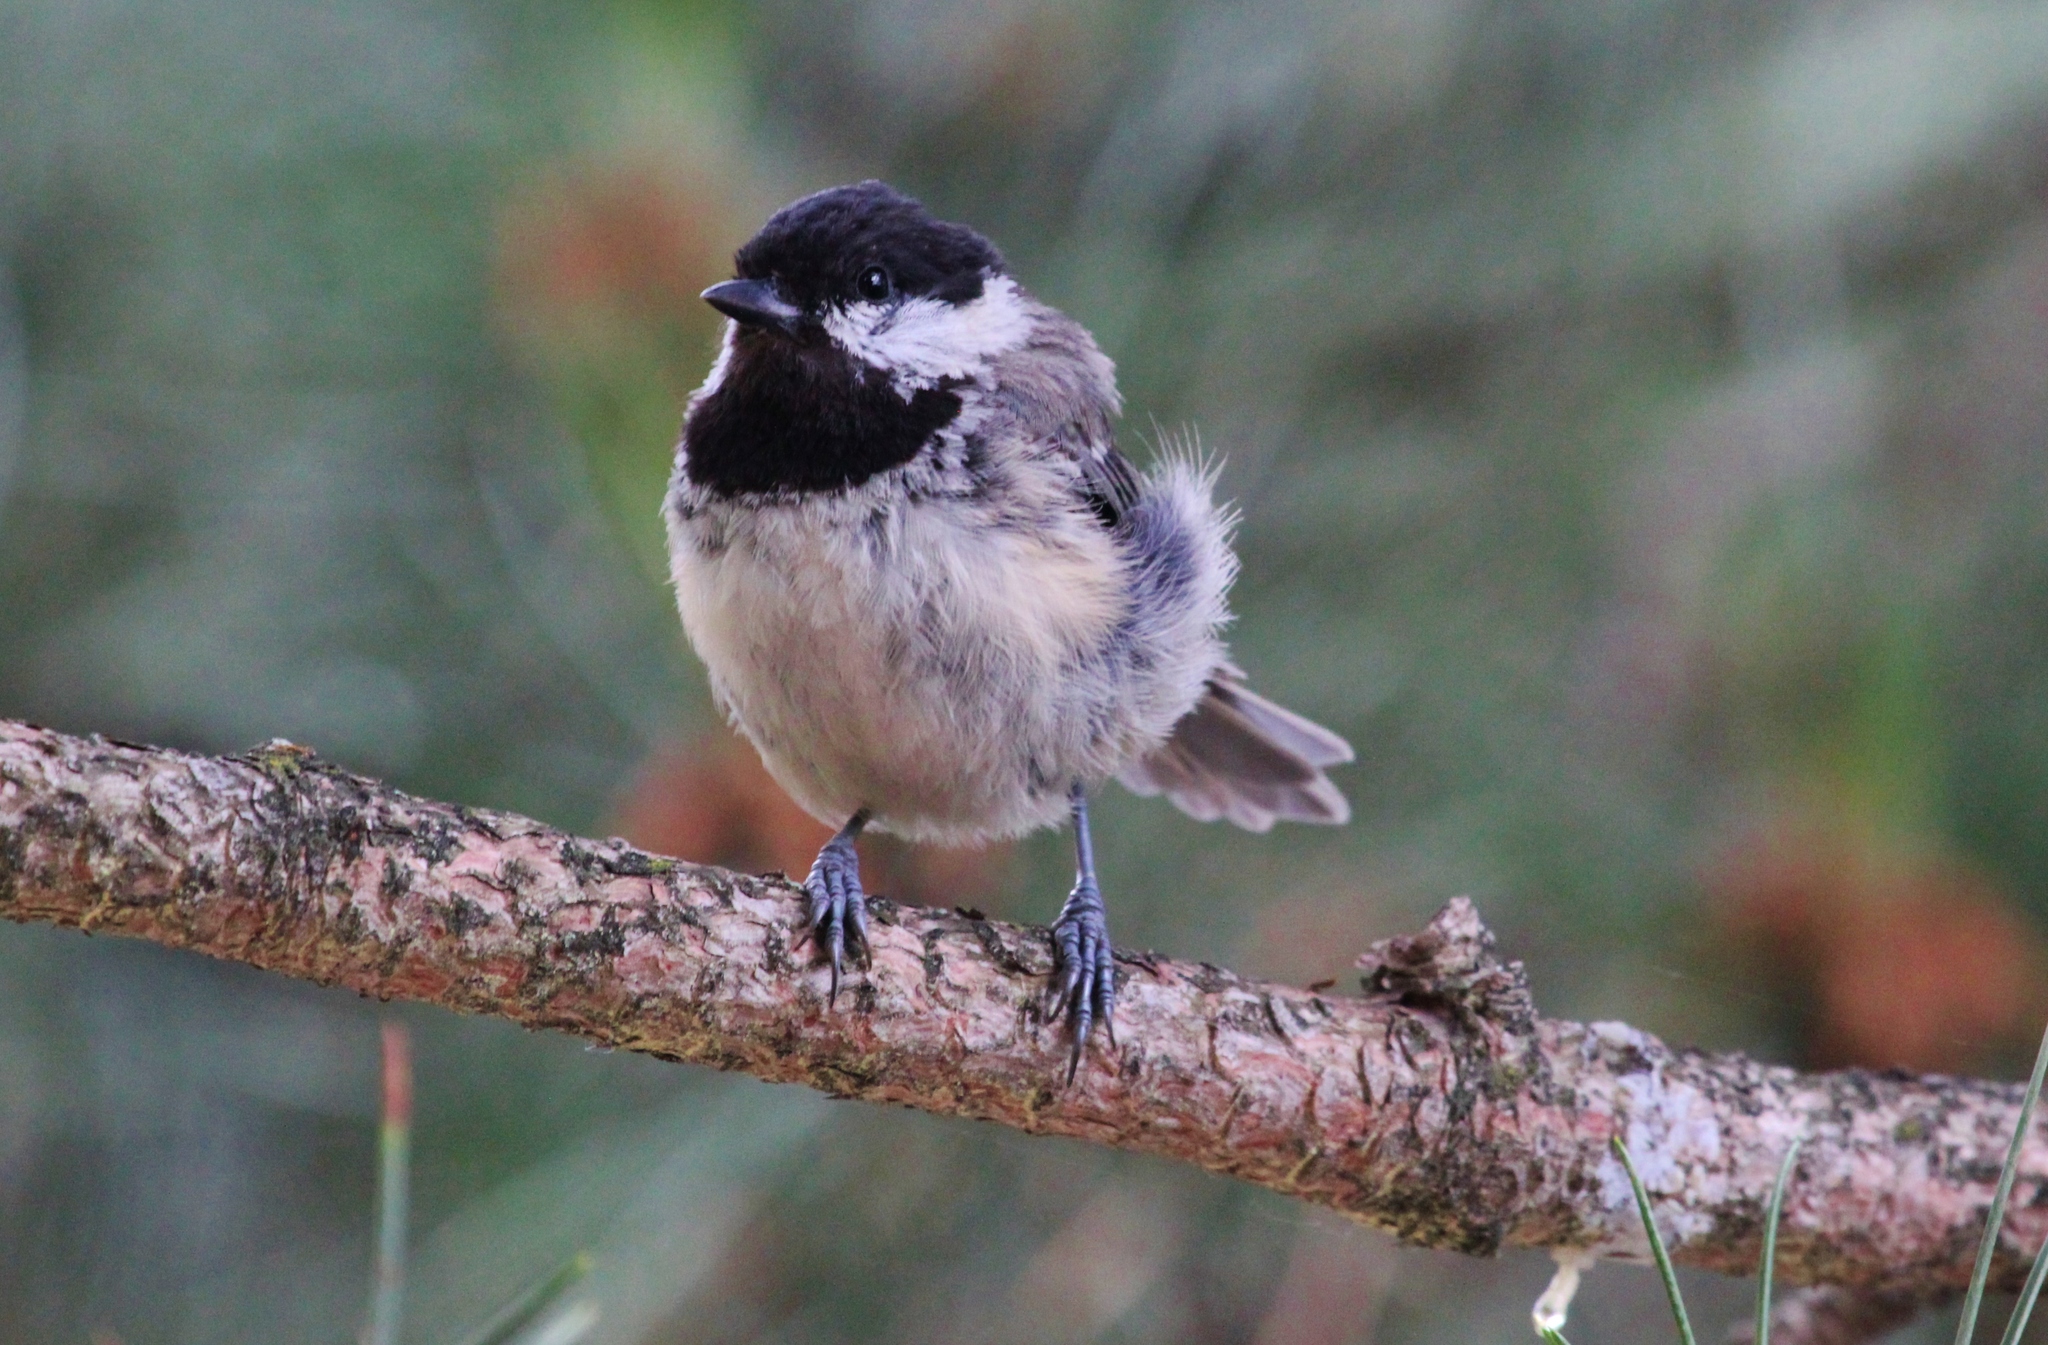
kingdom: Animalia
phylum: Chordata
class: Aves
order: Passeriformes
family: Paridae
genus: Periparus
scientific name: Periparus ater
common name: Coal tit
